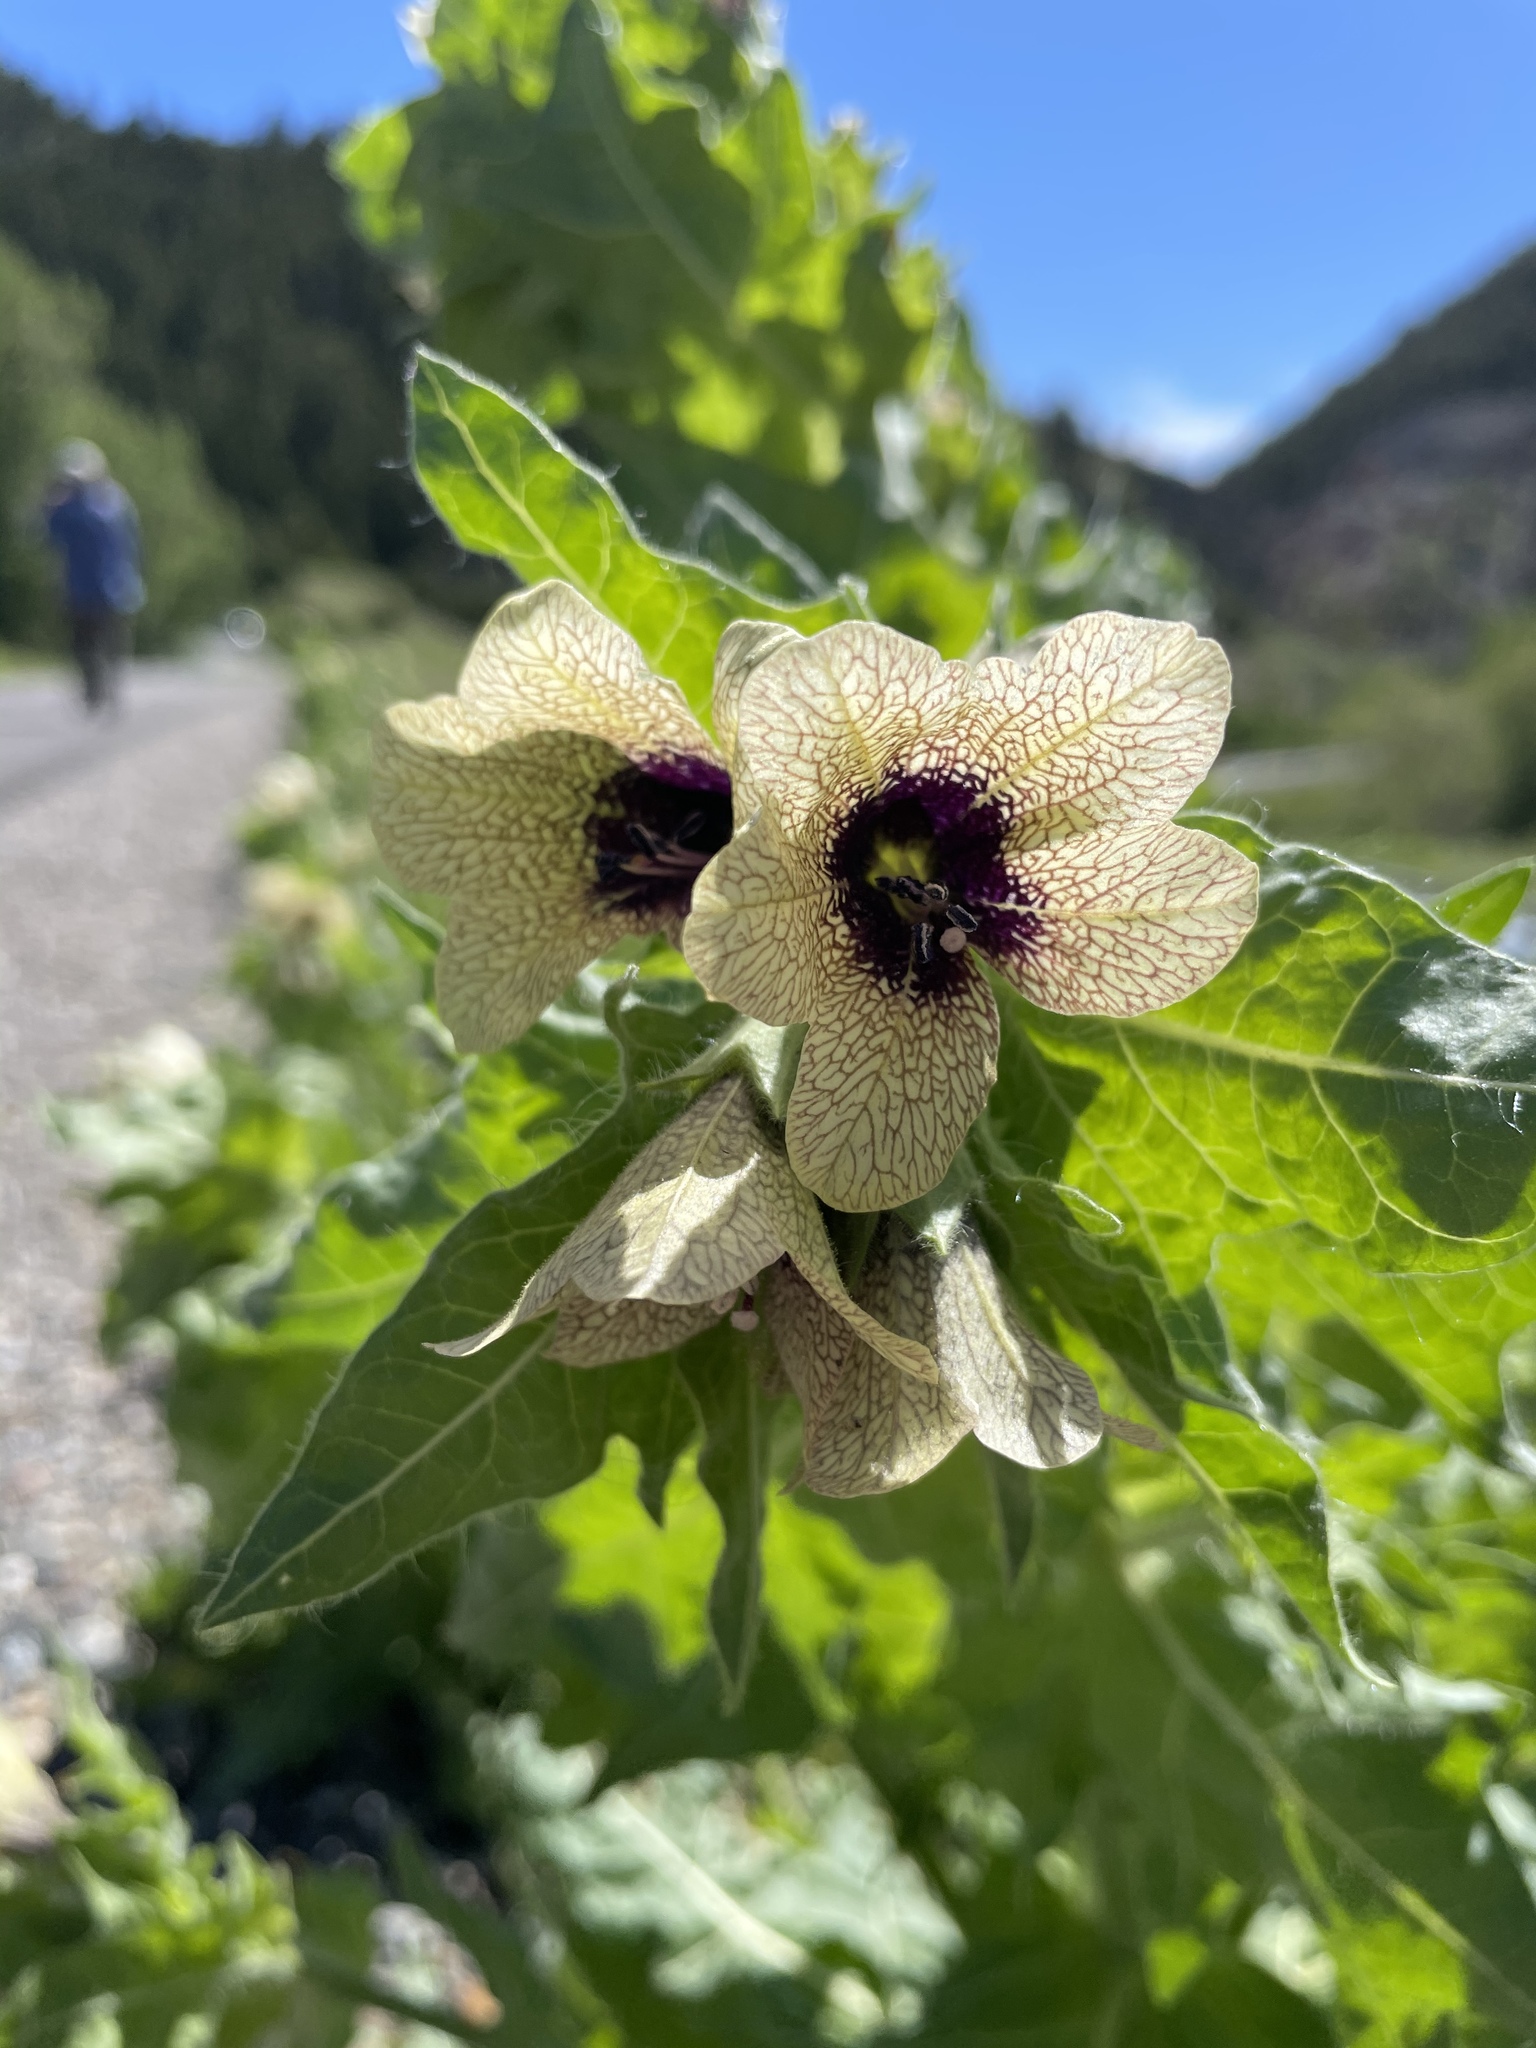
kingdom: Plantae
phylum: Tracheophyta
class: Magnoliopsida
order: Solanales
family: Solanaceae
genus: Hyoscyamus
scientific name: Hyoscyamus niger
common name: Henbane
